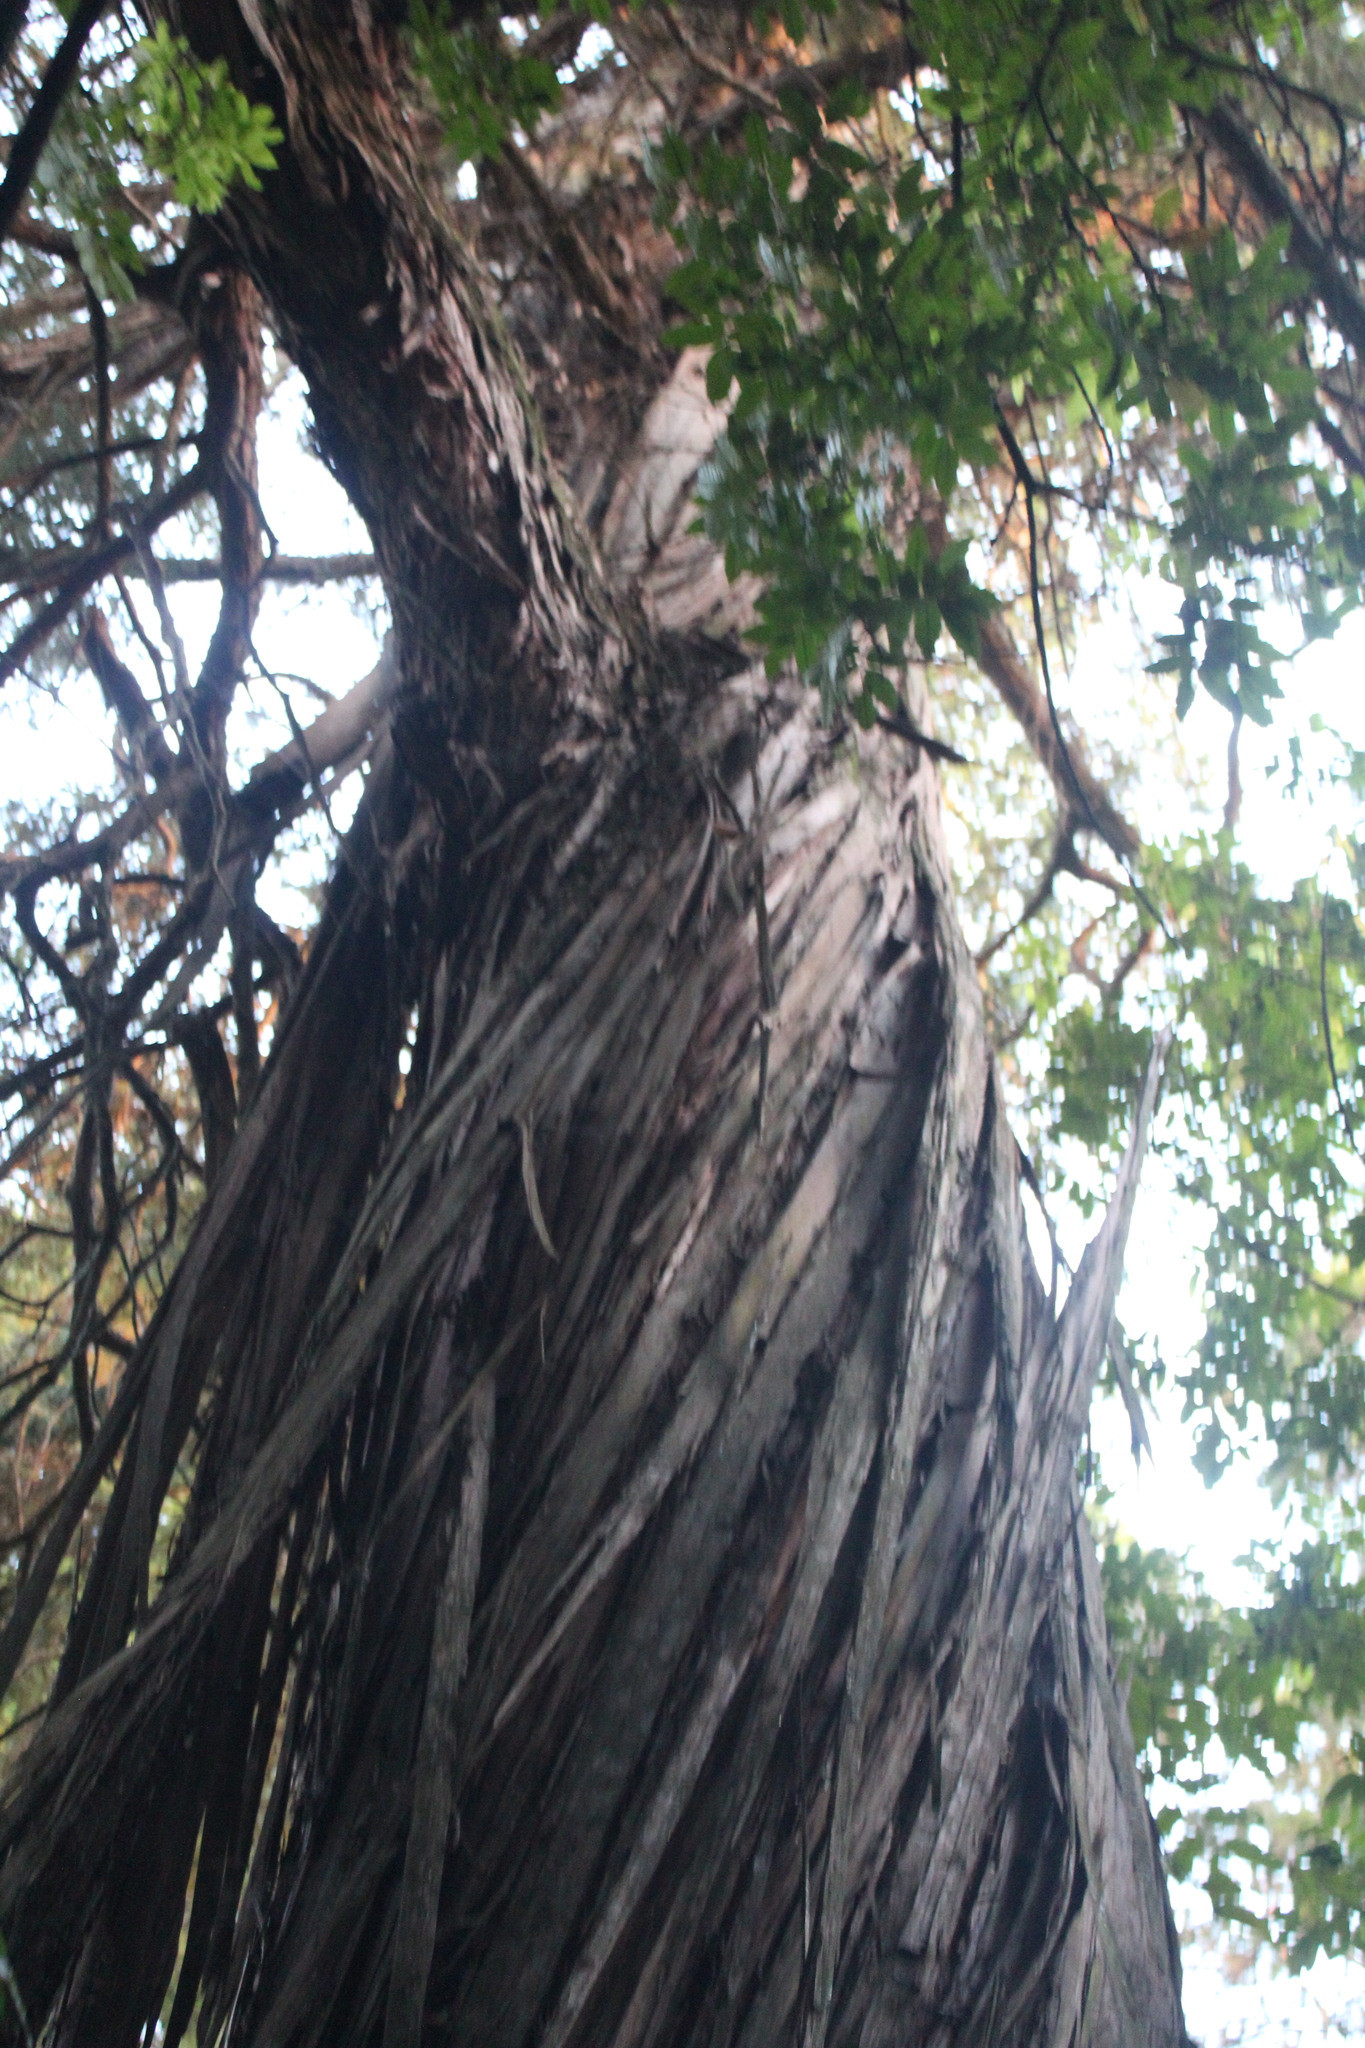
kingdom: Plantae
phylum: Tracheophyta
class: Pinopsida
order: Pinales
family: Podocarpaceae
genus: Podocarpus
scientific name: Podocarpus totara
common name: Totara
